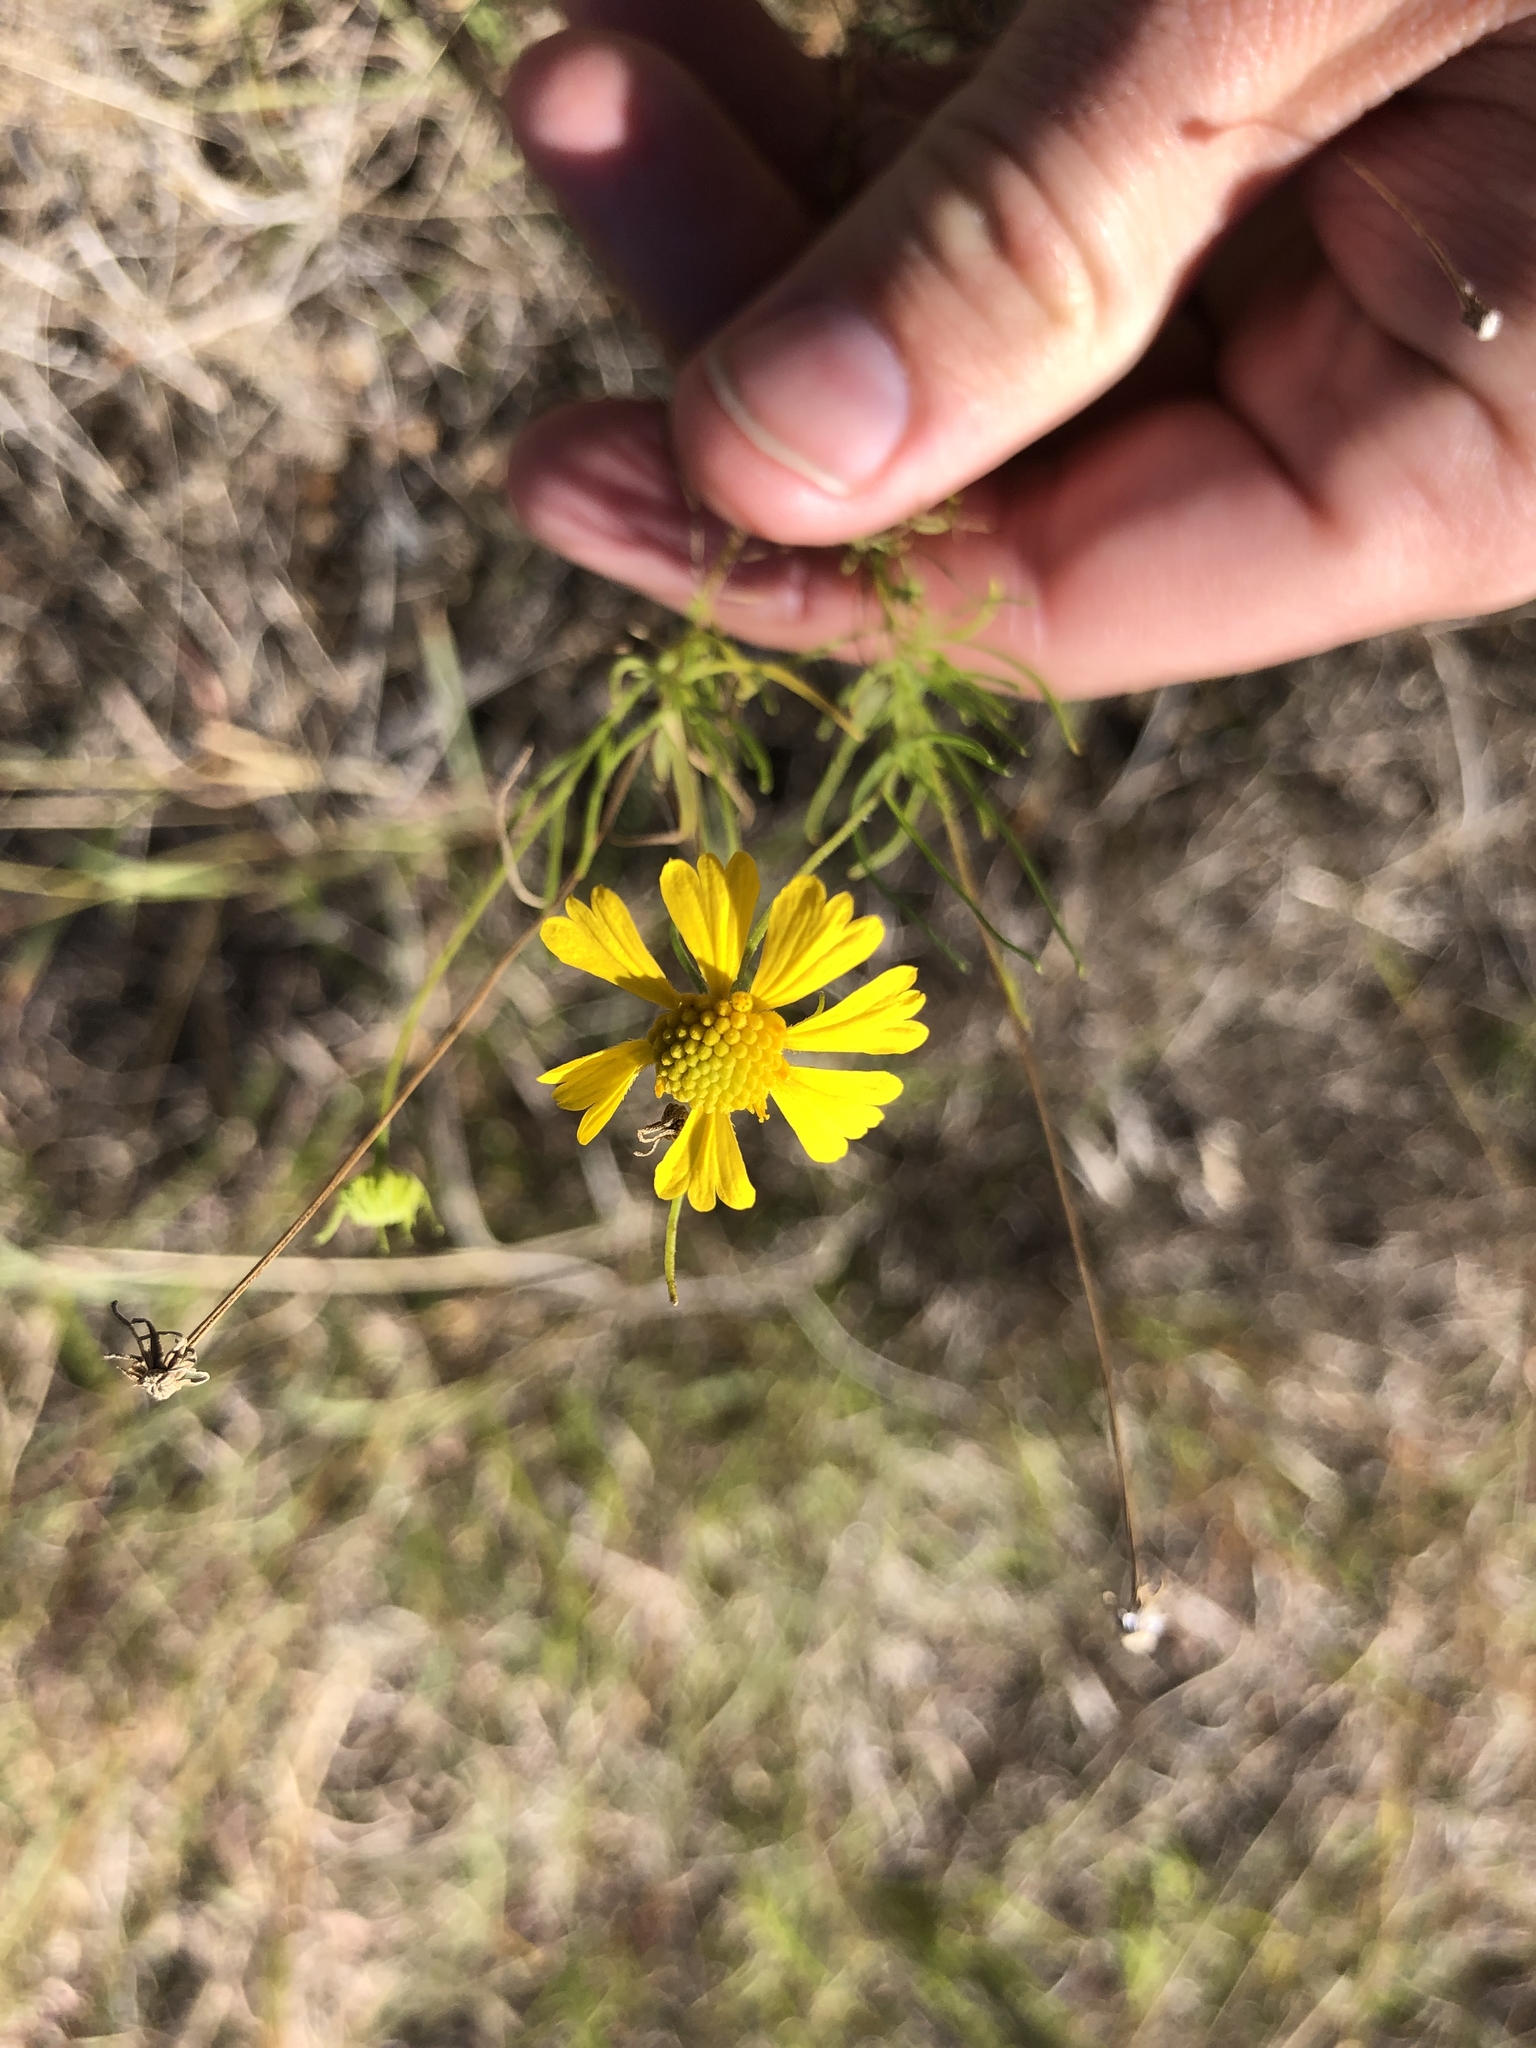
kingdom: Plantae
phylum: Tracheophyta
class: Magnoliopsida
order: Asterales
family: Asteraceae
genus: Helenium
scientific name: Helenium amarum
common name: Bitter sneezeweed
